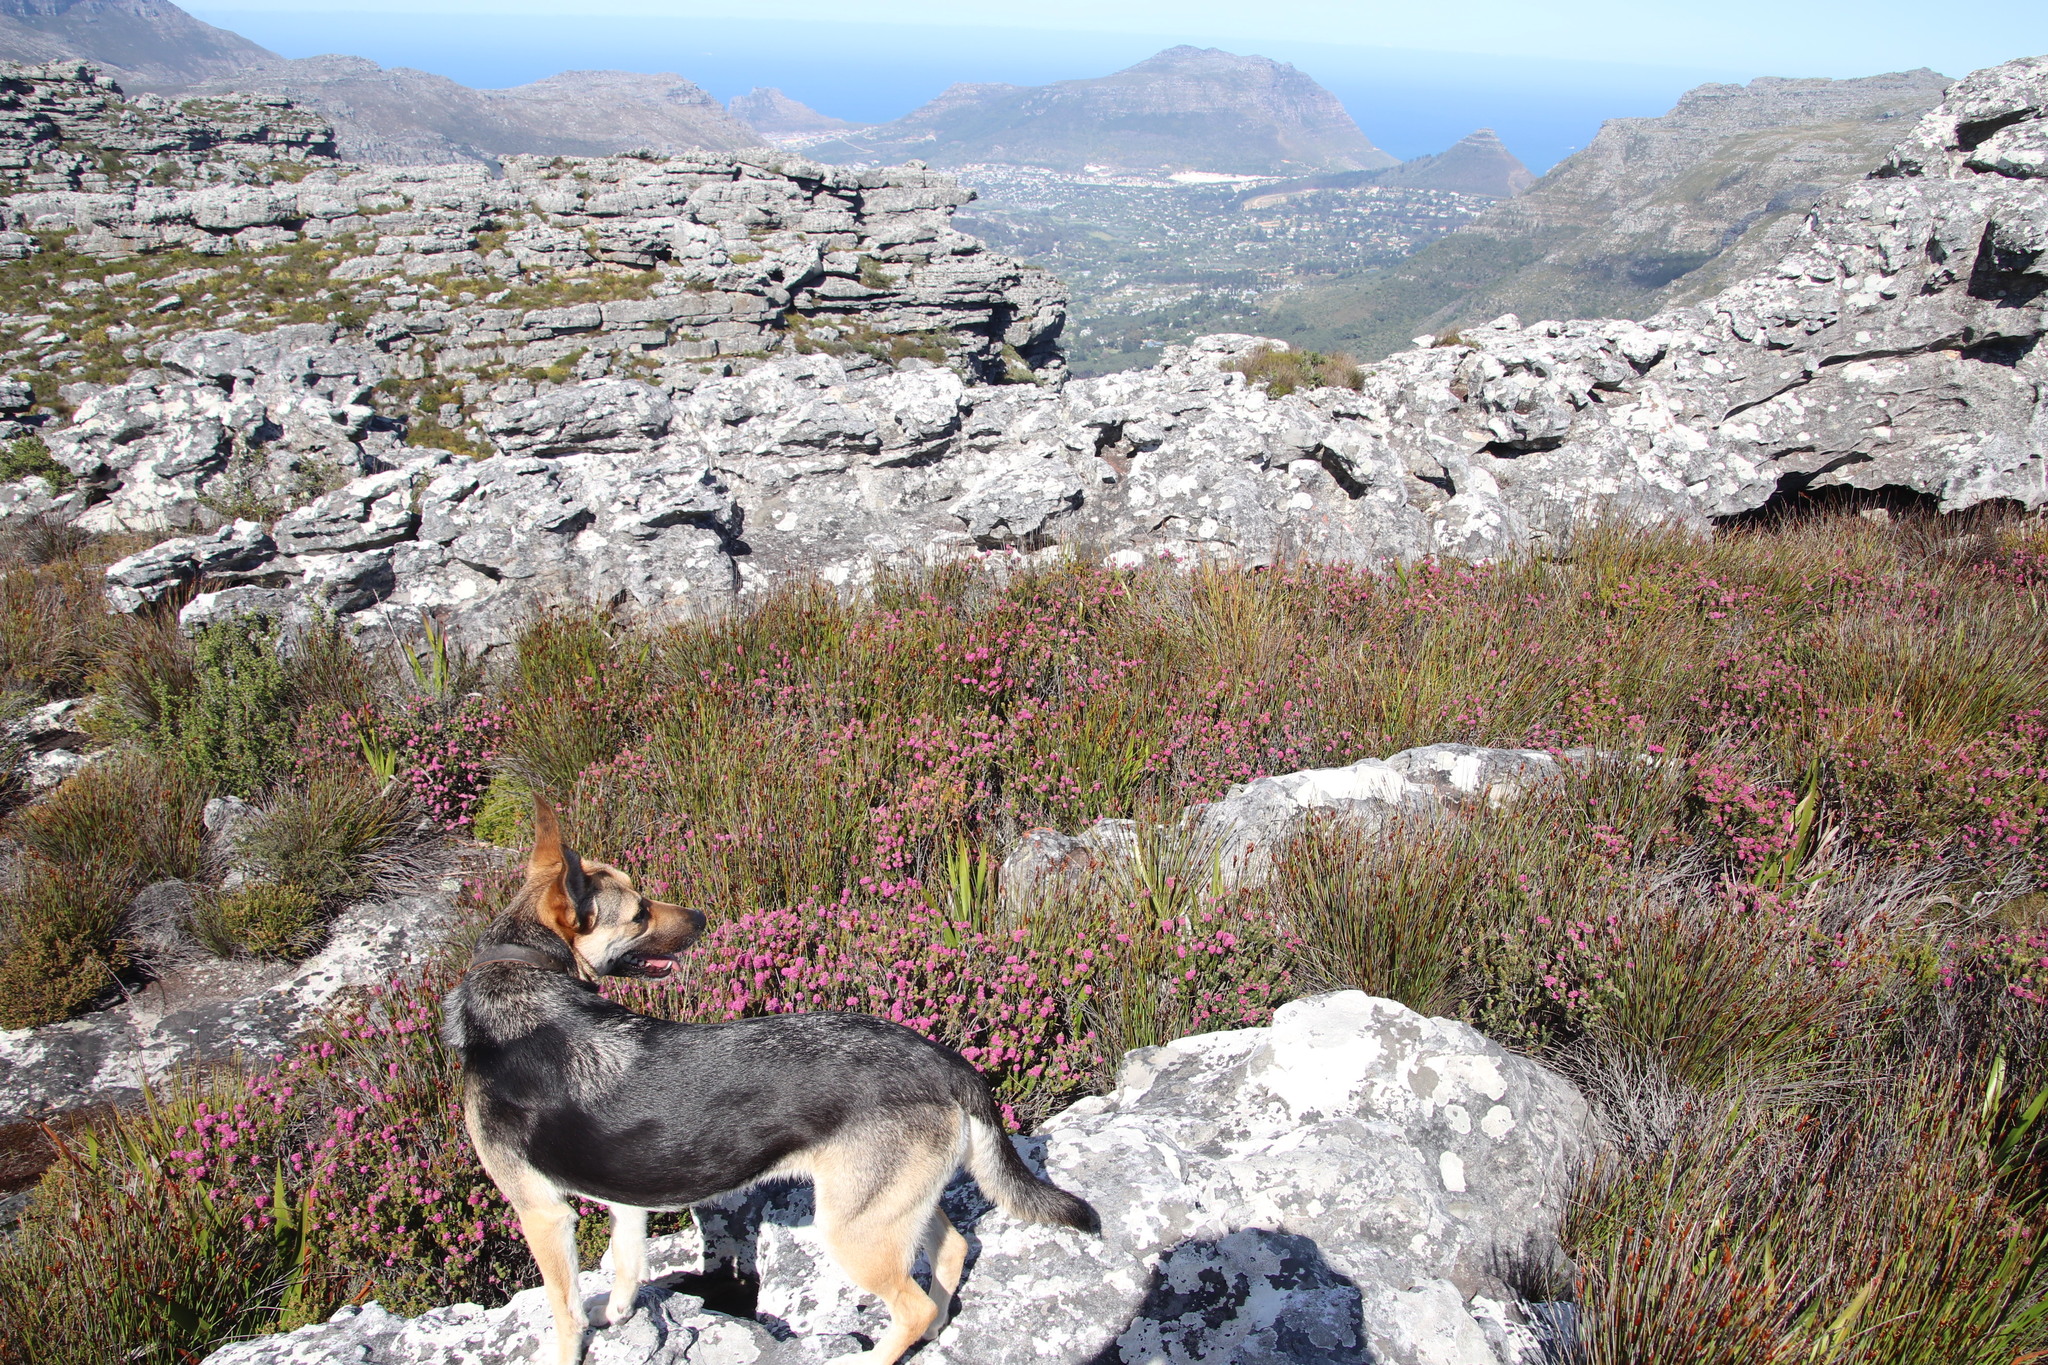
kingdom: Plantae
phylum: Tracheophyta
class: Magnoliopsida
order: Ericales
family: Ericaceae
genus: Erica
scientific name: Erica empetrina
